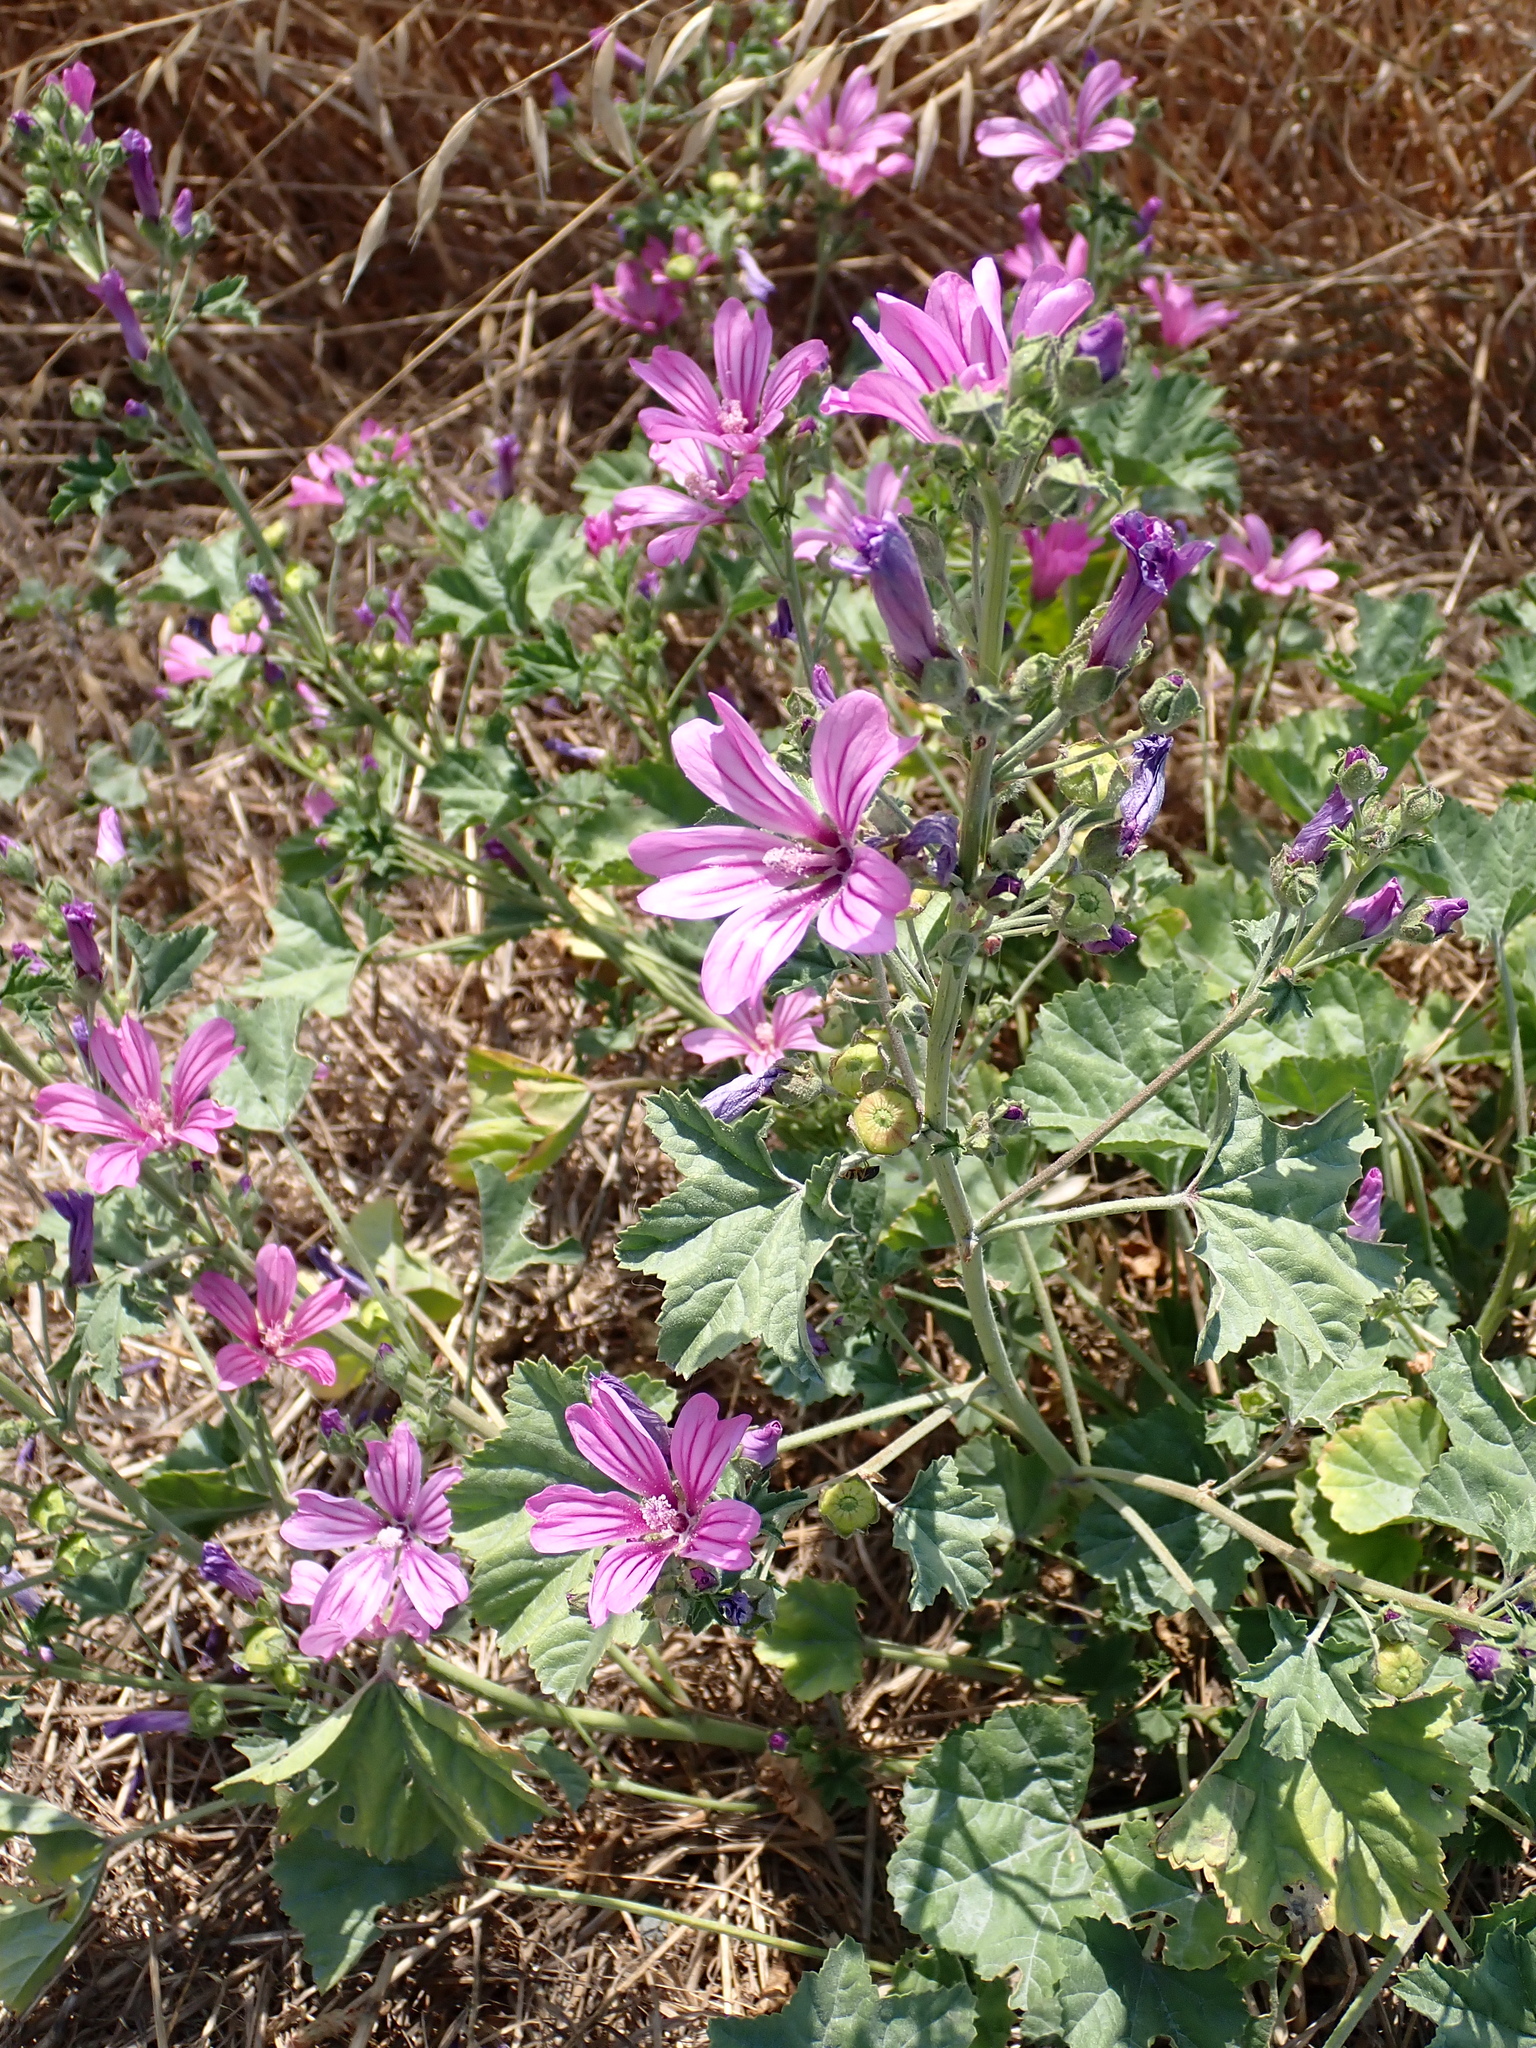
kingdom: Plantae
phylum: Tracheophyta
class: Magnoliopsida
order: Malvales
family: Malvaceae
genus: Malva
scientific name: Malva sylvestris
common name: Common mallow
